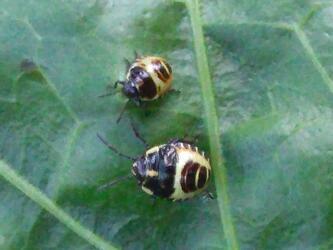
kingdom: Animalia
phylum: Arthropoda
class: Insecta
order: Hemiptera
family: Pentatomidae
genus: Eurydema
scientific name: Eurydema oleracea
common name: Cabbage bug
